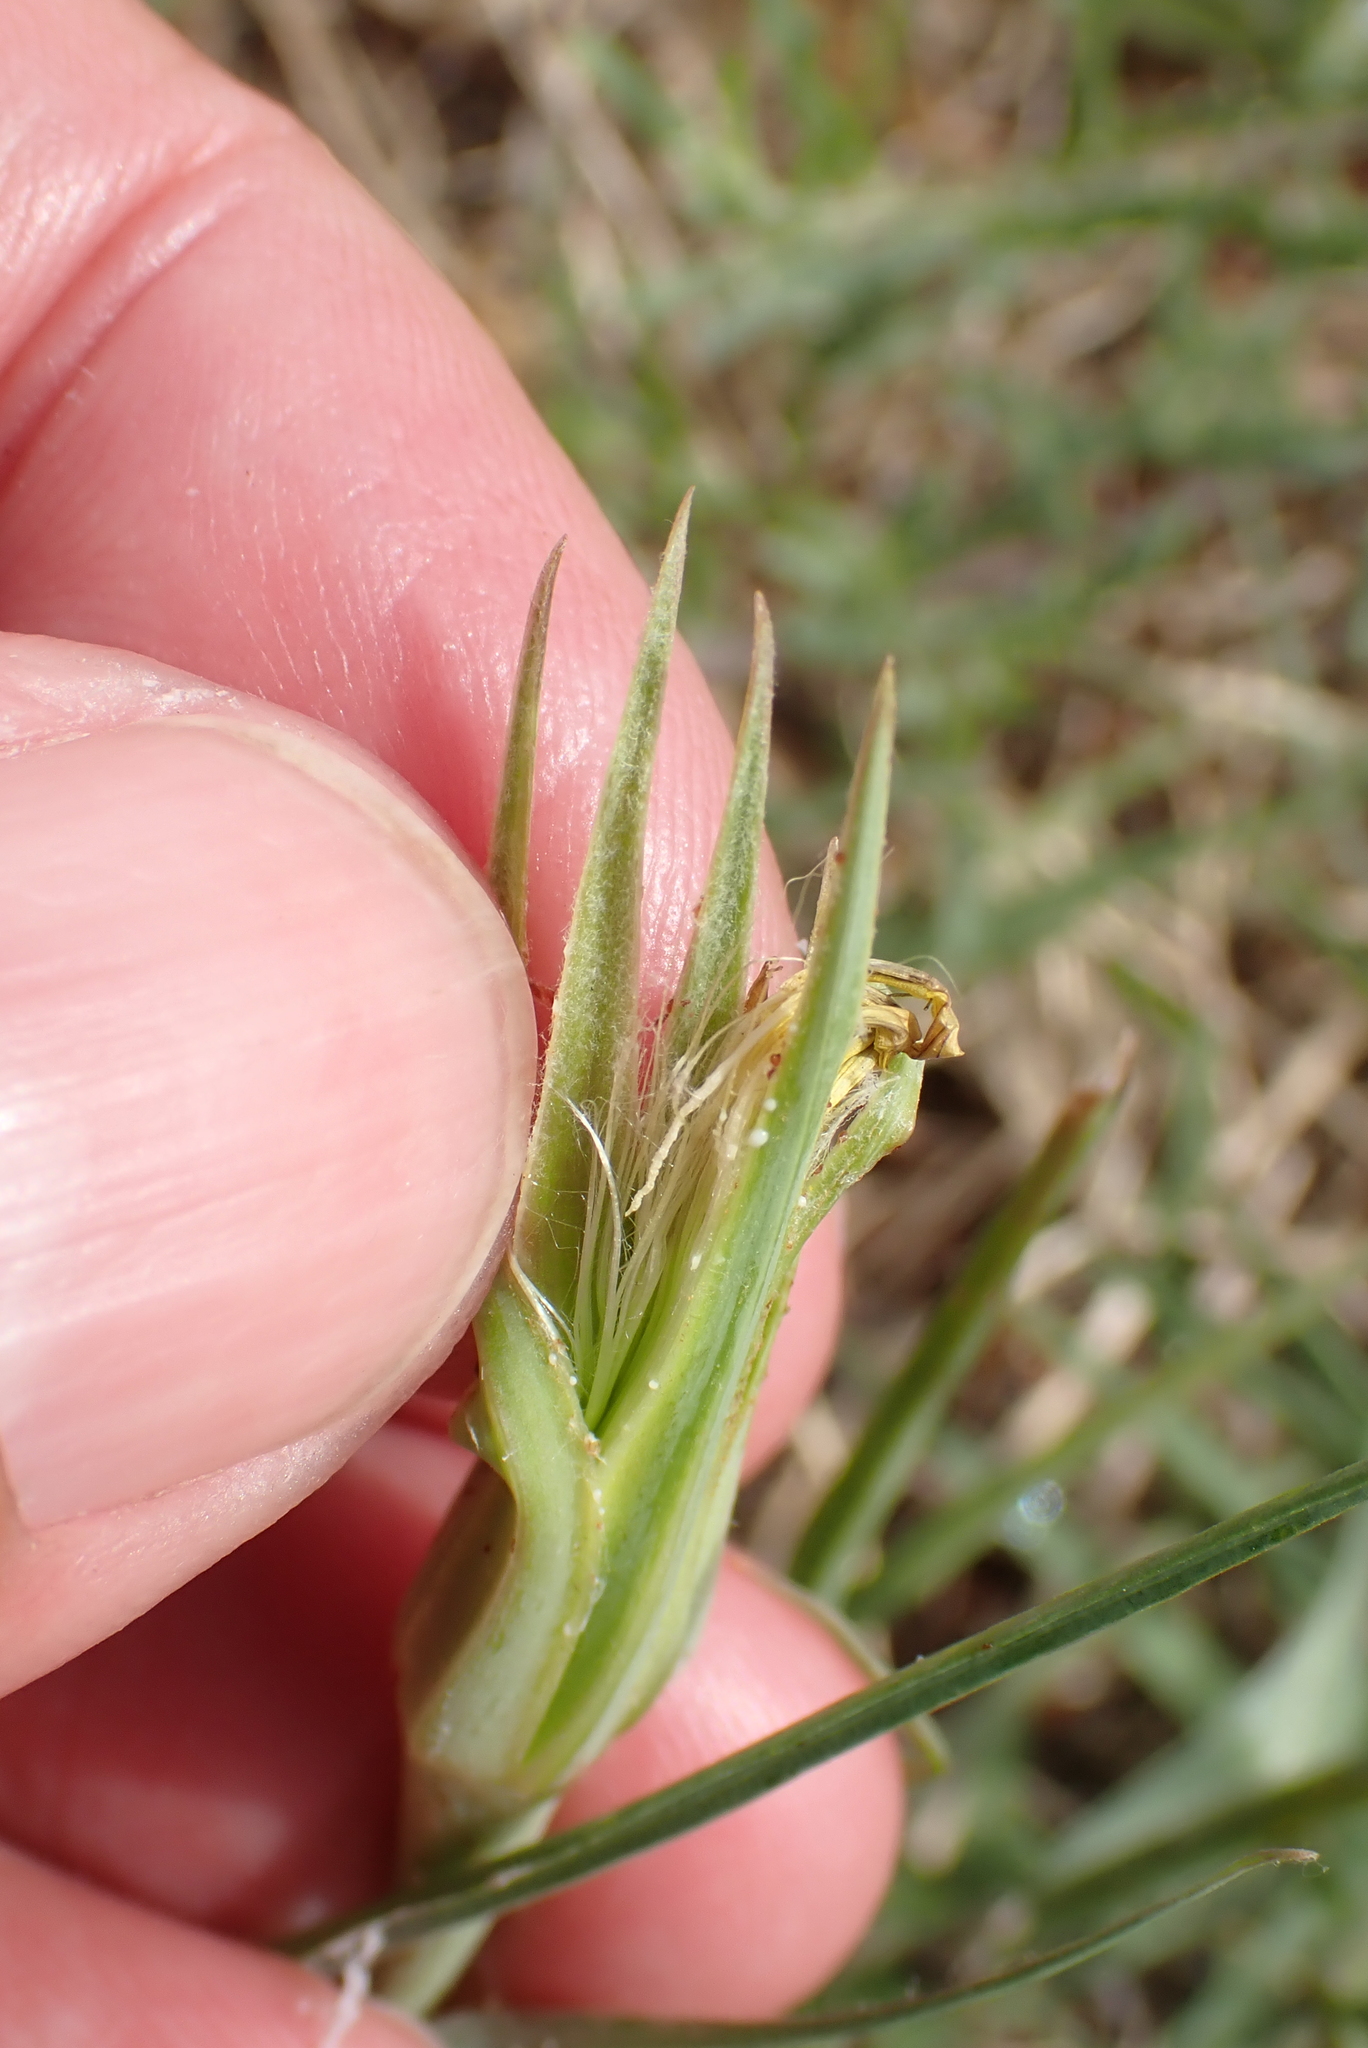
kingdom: Plantae
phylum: Tracheophyta
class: Magnoliopsida
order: Asterales
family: Asteraceae
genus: Tragopogon
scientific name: Tragopogon minor
